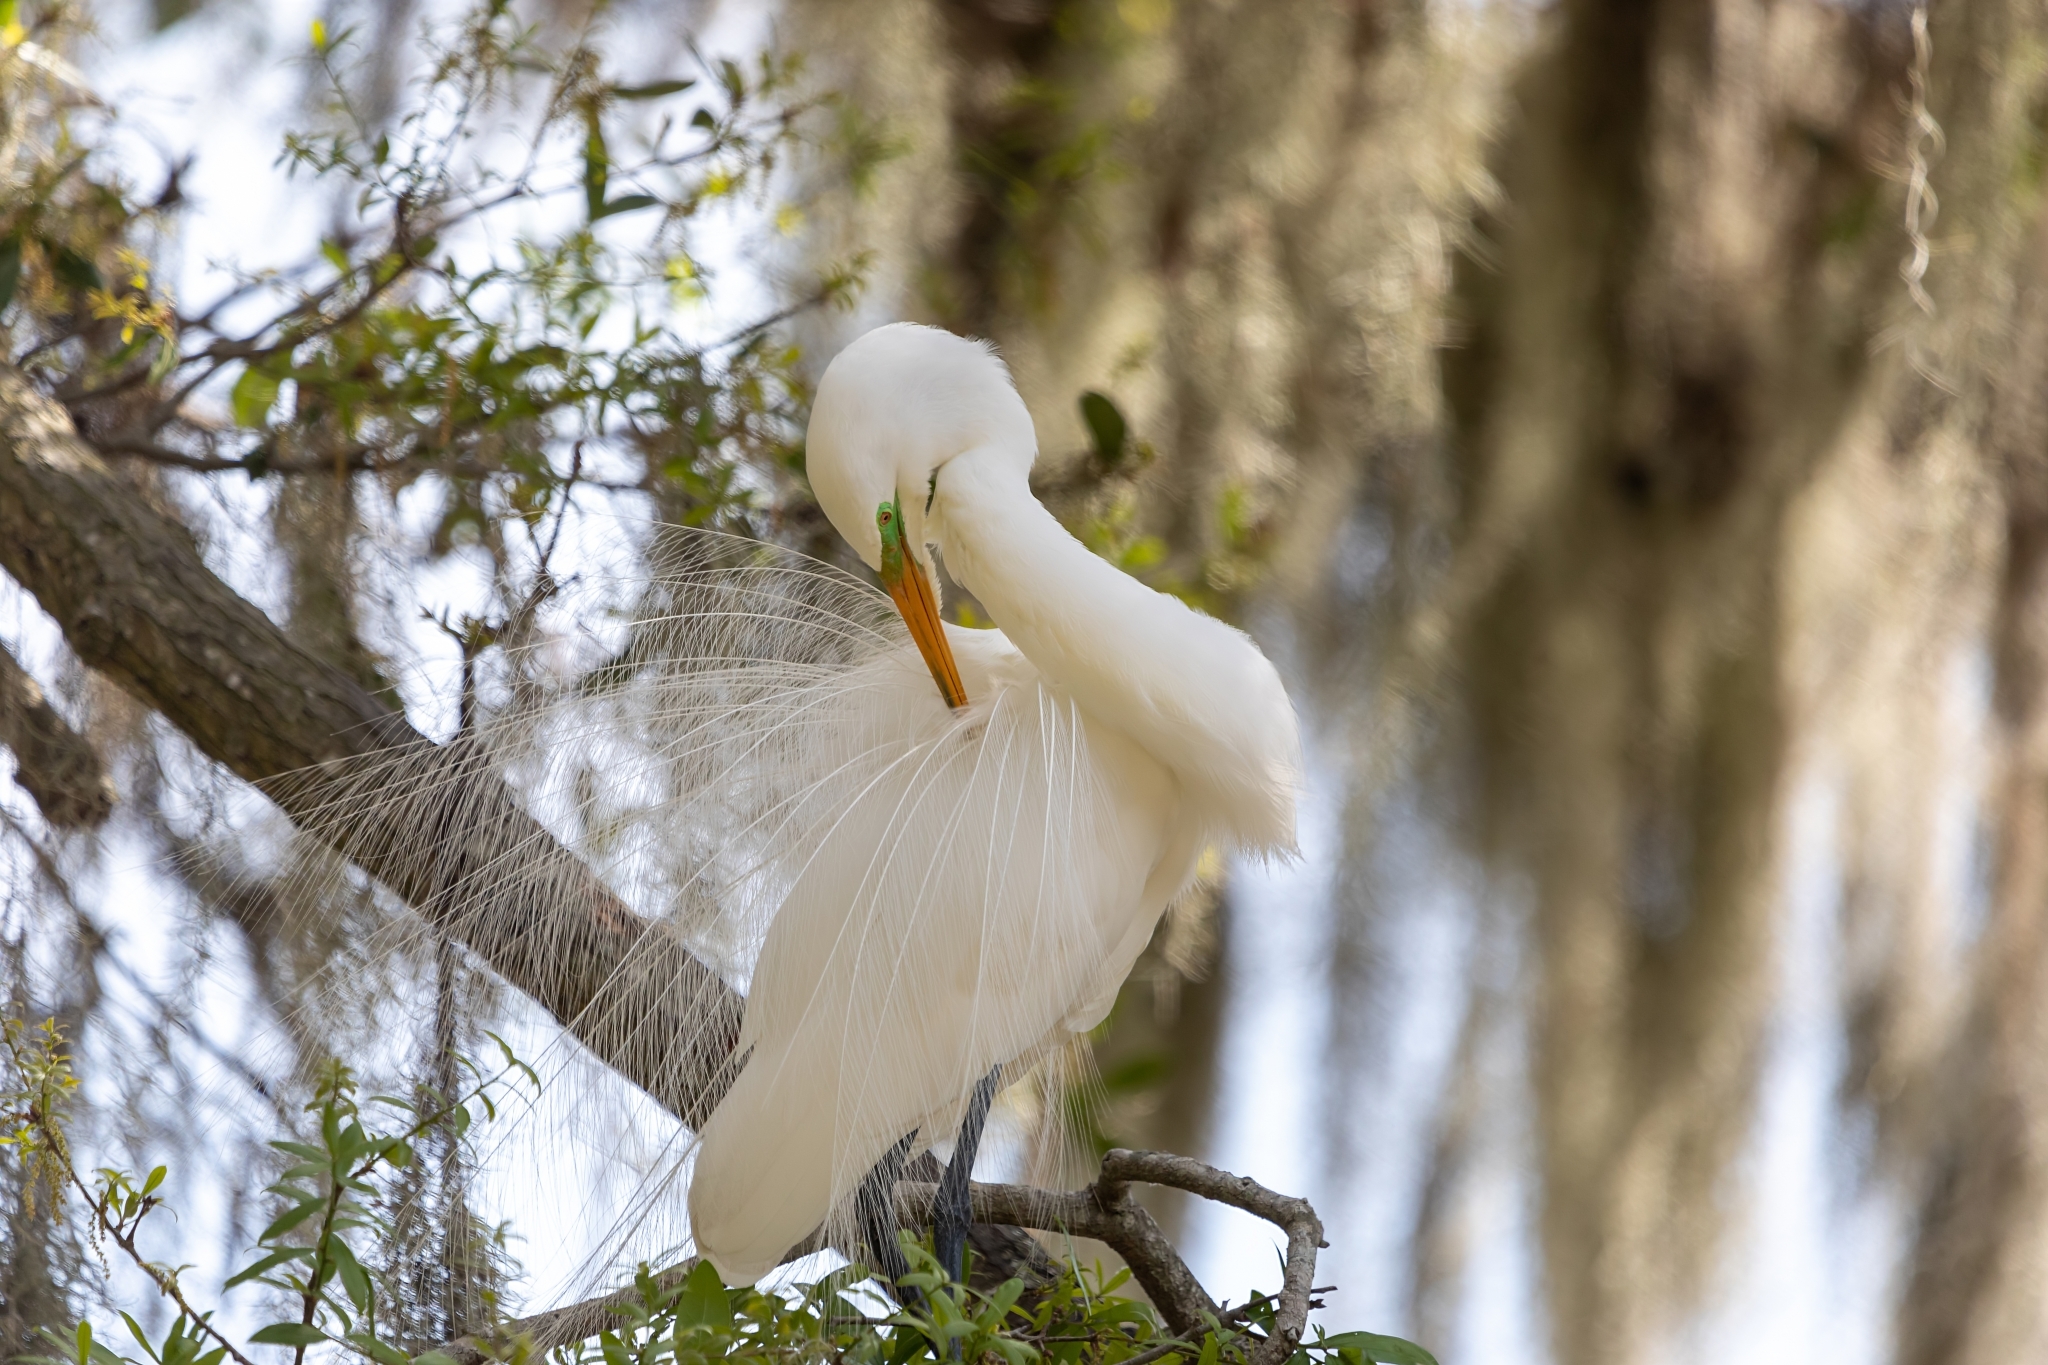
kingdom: Animalia
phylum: Chordata
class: Aves
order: Pelecaniformes
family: Ardeidae
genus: Ardea
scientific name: Ardea alba
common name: Great egret
